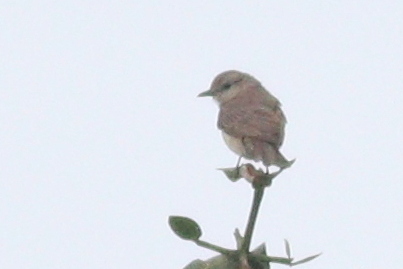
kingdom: Animalia
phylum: Chordata
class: Aves
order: Passeriformes
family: Muscicapidae
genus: Bradornis
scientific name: Bradornis pallidus
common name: Pale flycatcher
